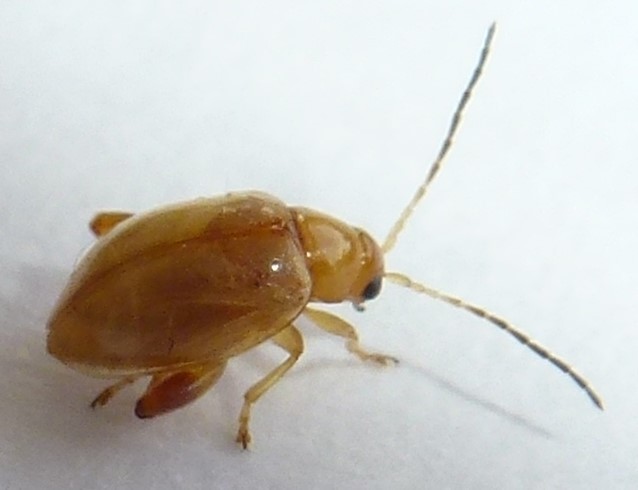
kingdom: Animalia
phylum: Arthropoda
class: Insecta
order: Coleoptera
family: Chrysomelidae
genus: Longitarsus
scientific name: Longitarsus jacobaeae
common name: Tansy ragwort flea beetle
